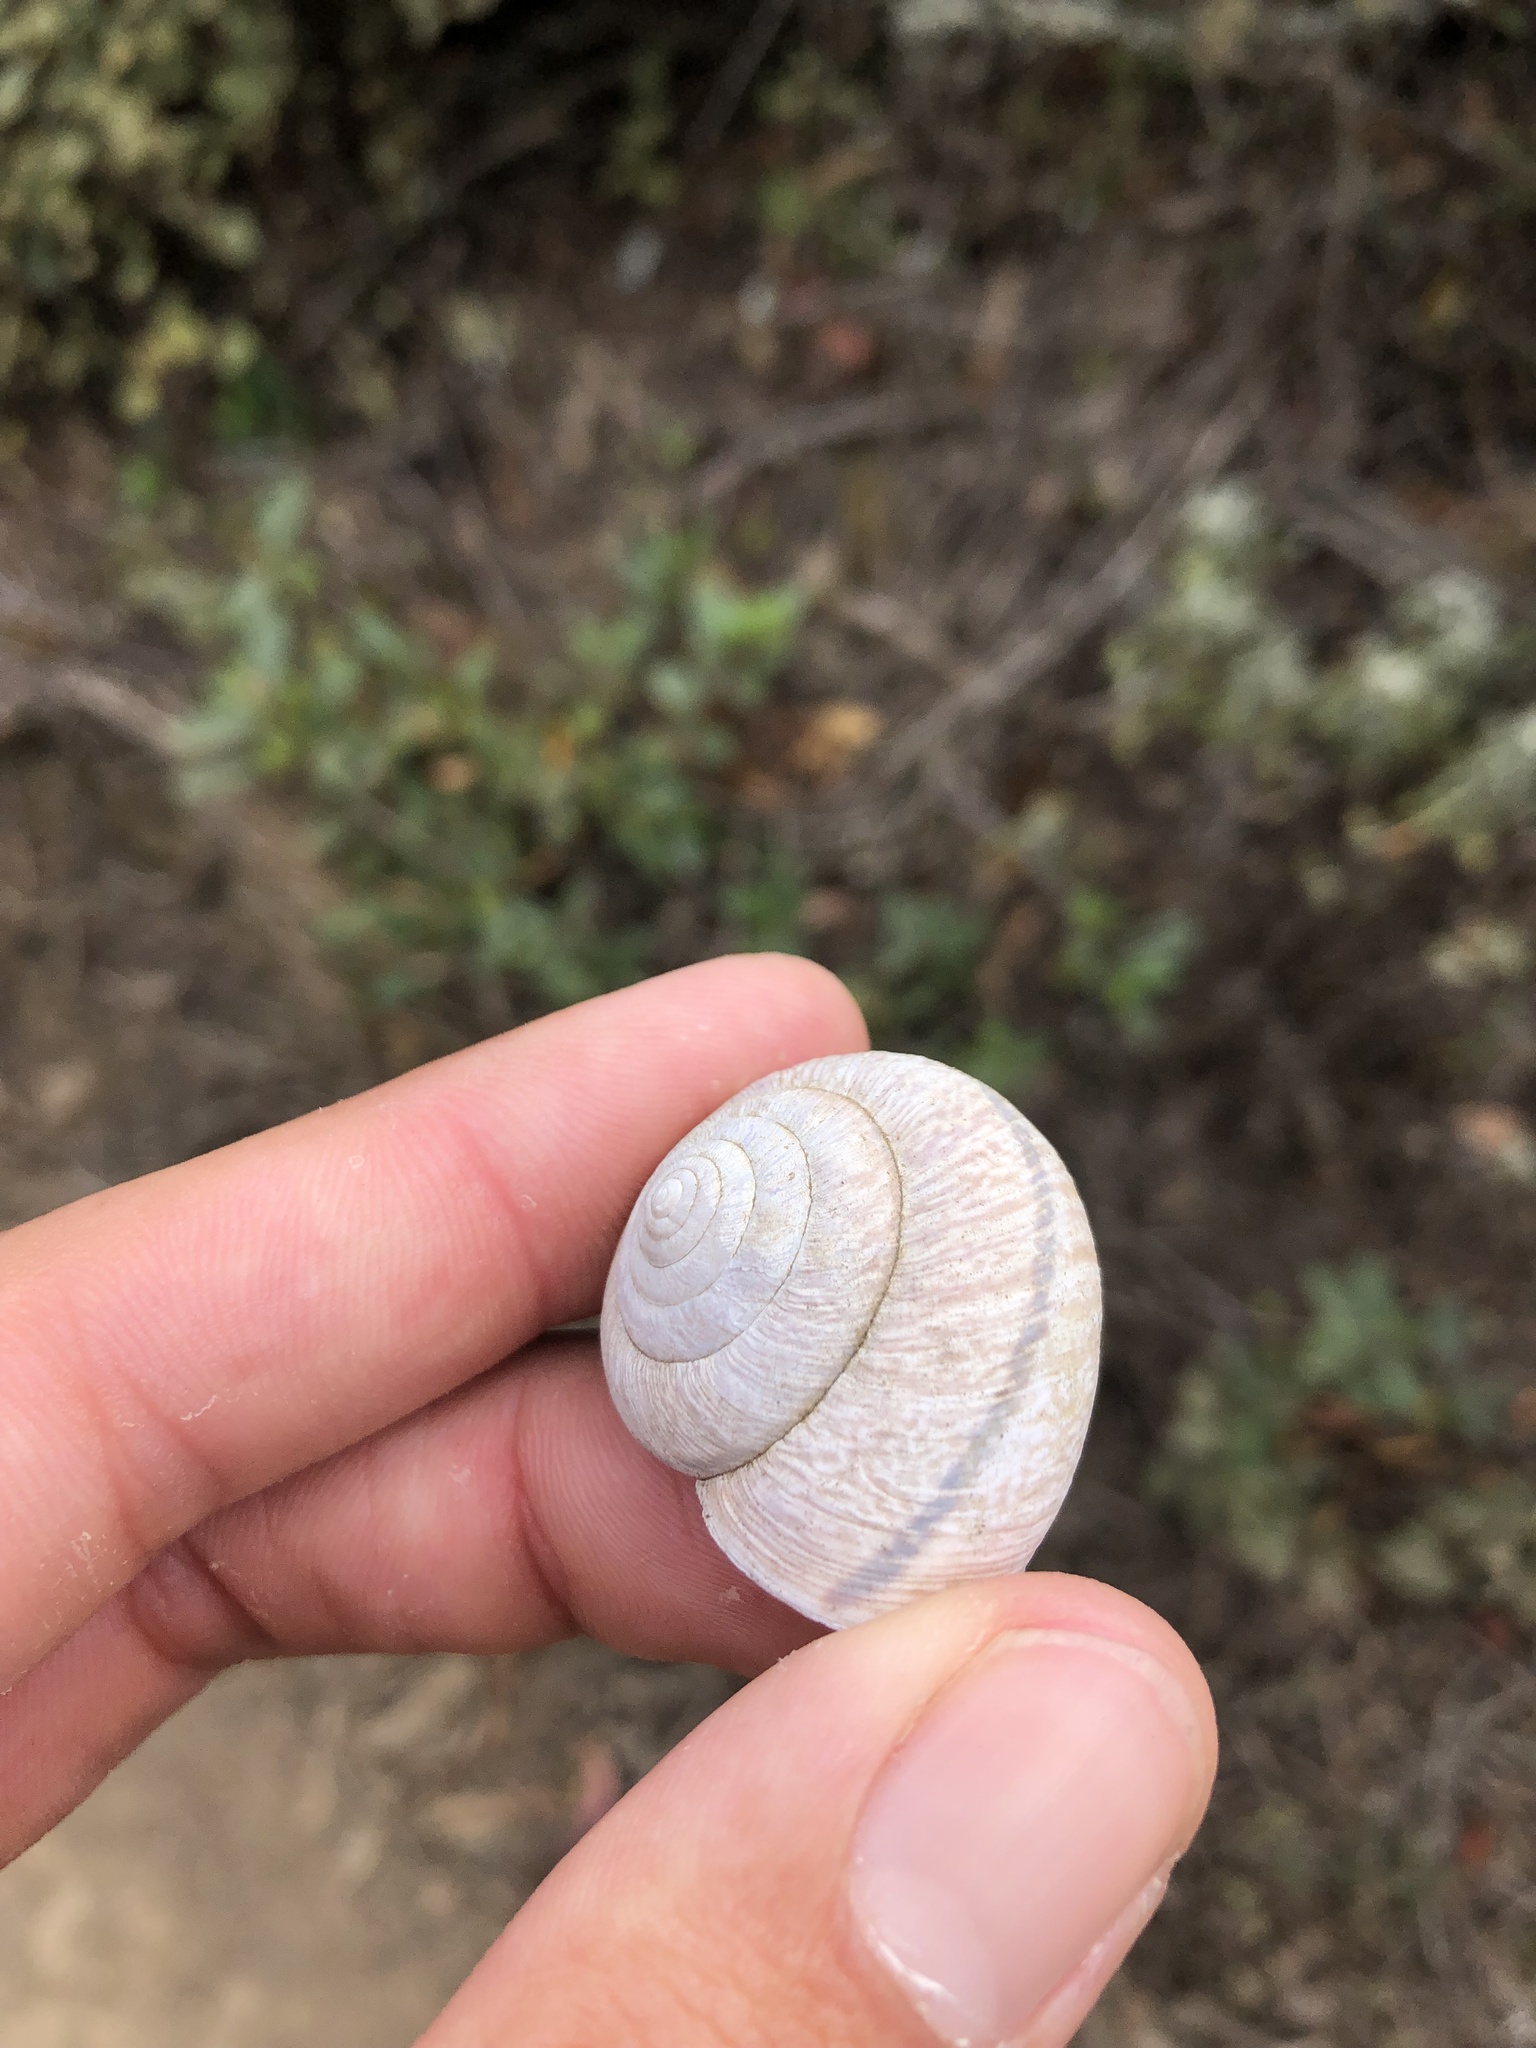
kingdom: Animalia
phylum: Mollusca
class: Gastropoda
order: Stylommatophora
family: Xanthonychidae
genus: Helminthoglypta
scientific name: Helminthoglypta arrosa
